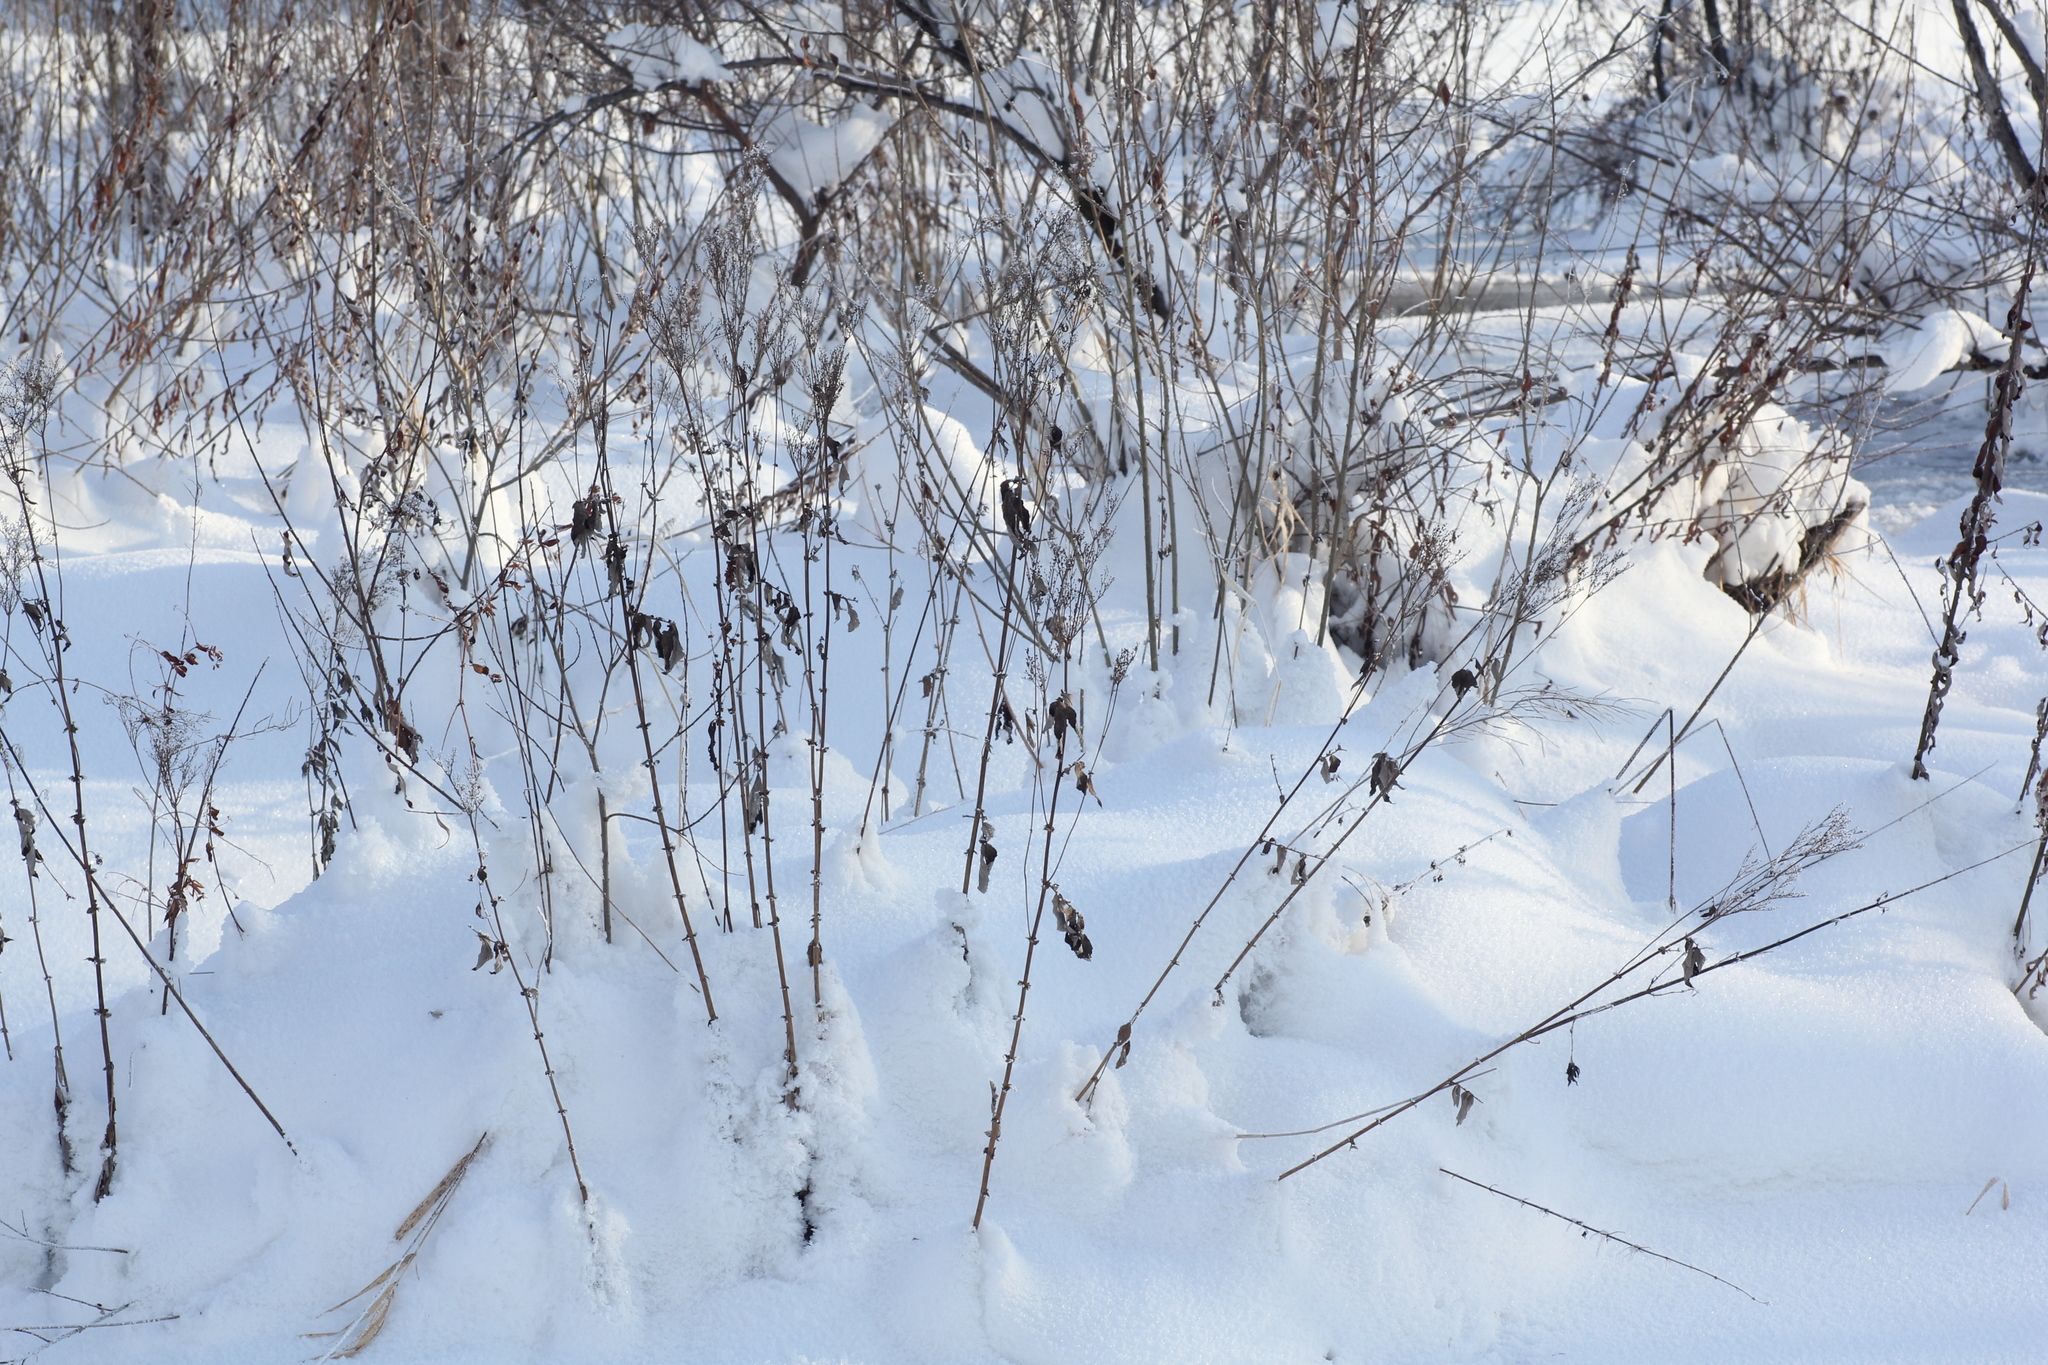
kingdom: Plantae
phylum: Tracheophyta
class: Magnoliopsida
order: Rosales
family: Rosaceae
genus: Filipendula
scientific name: Filipendula ulmaria
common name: Meadowsweet
